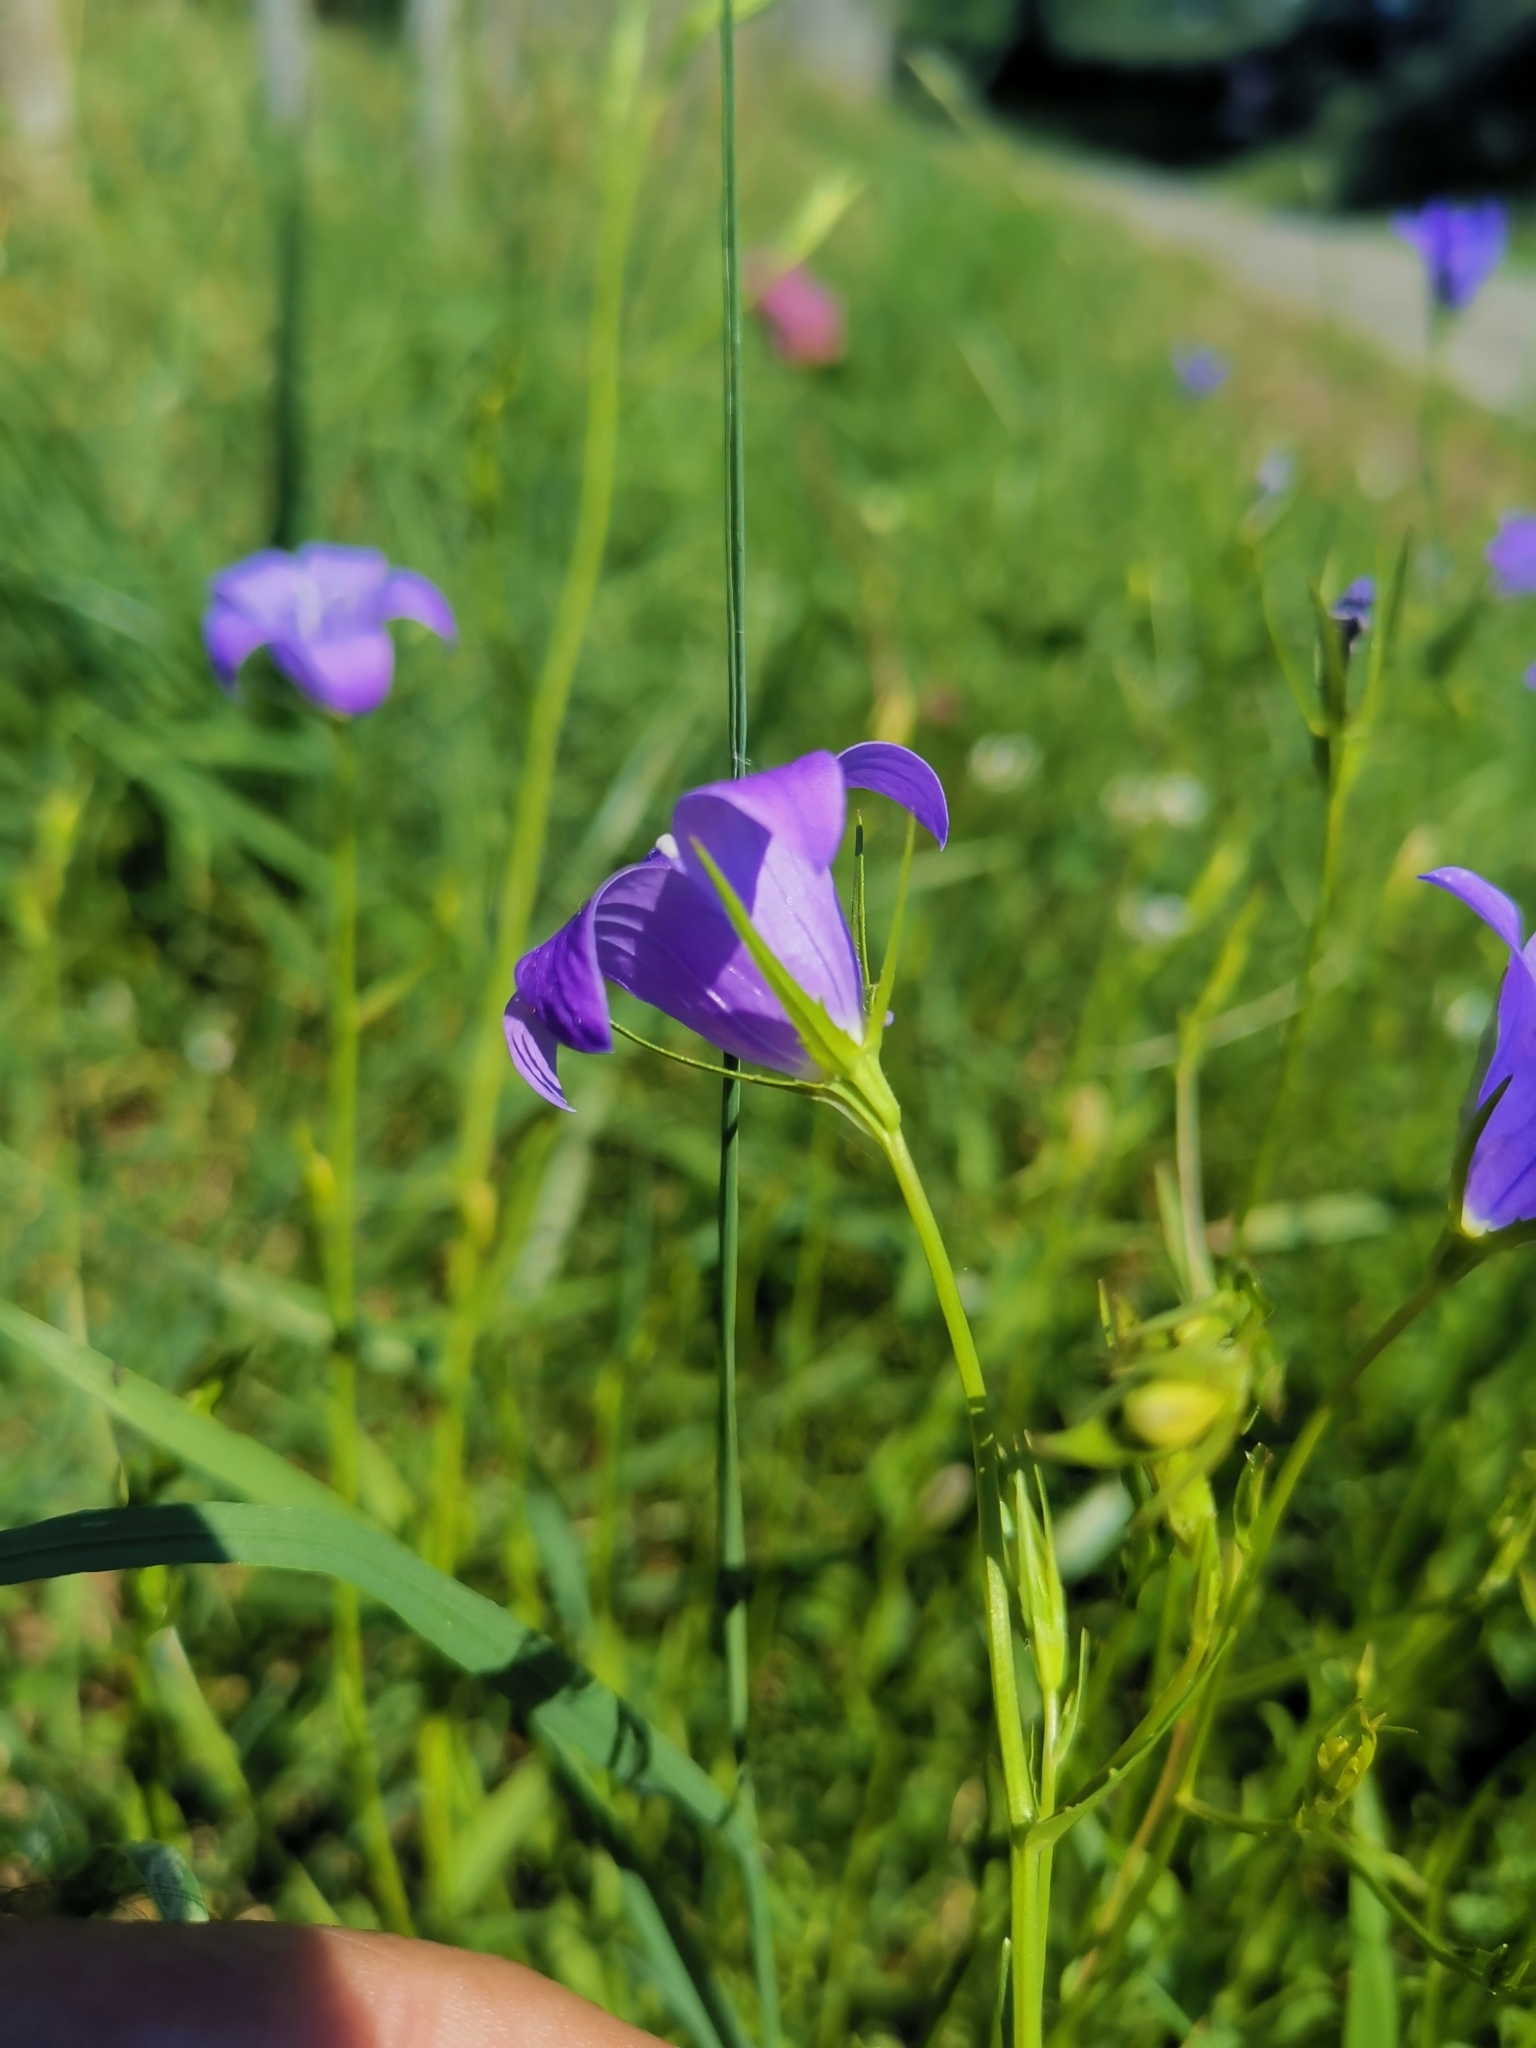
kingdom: Plantae
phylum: Tracheophyta
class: Magnoliopsida
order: Asterales
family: Campanulaceae
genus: Campanula
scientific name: Campanula patula
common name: Spreading bellflower
